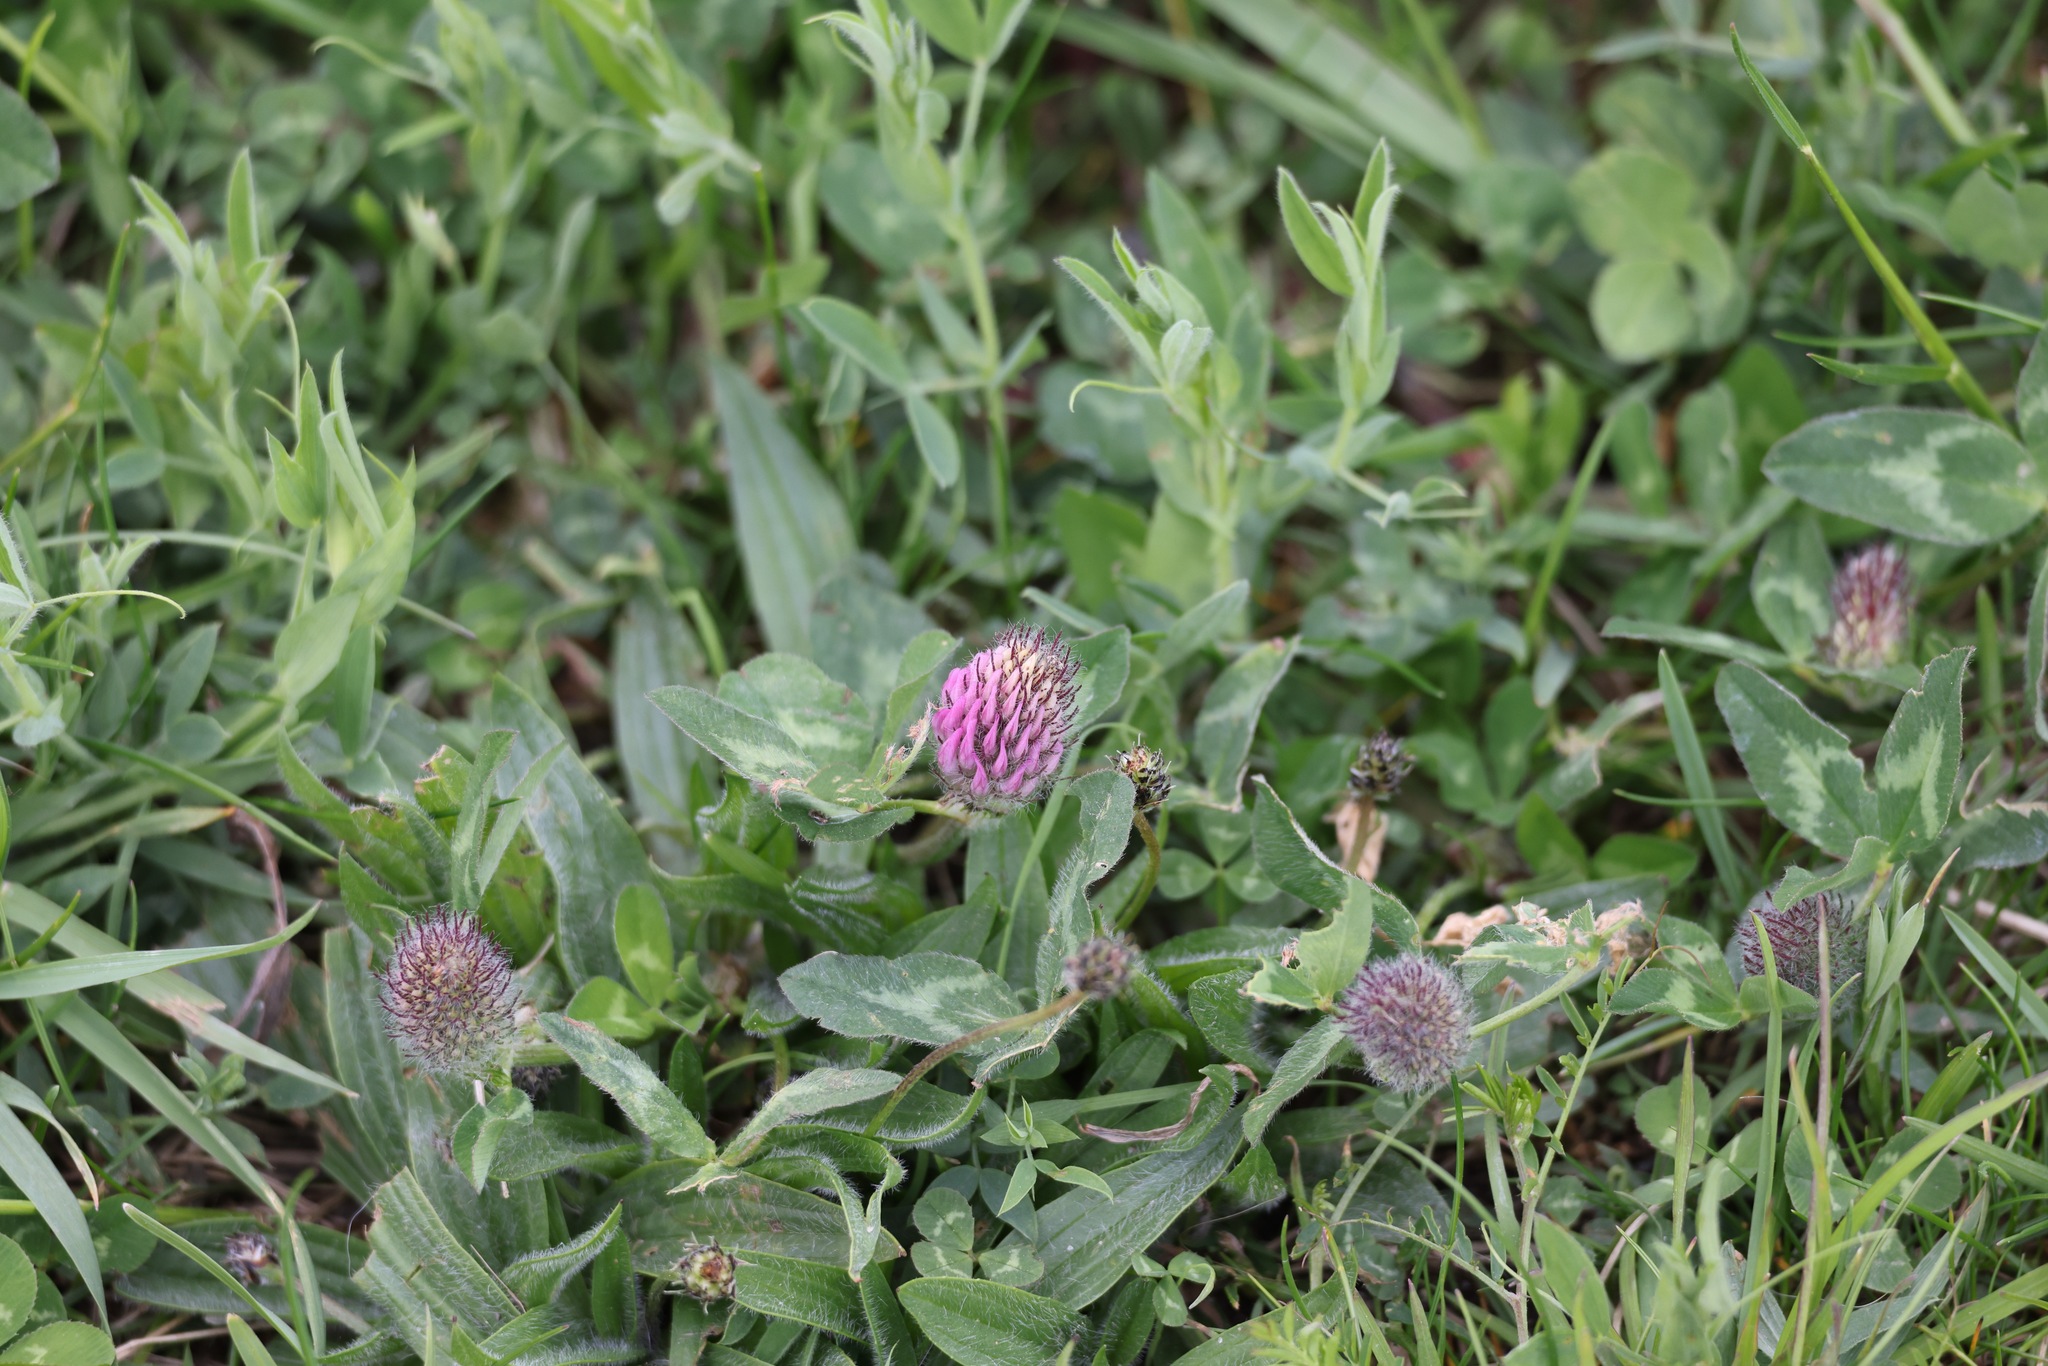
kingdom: Plantae
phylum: Tracheophyta
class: Magnoliopsida
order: Fabales
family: Fabaceae
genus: Trifolium
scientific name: Trifolium pratense
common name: Red clover
